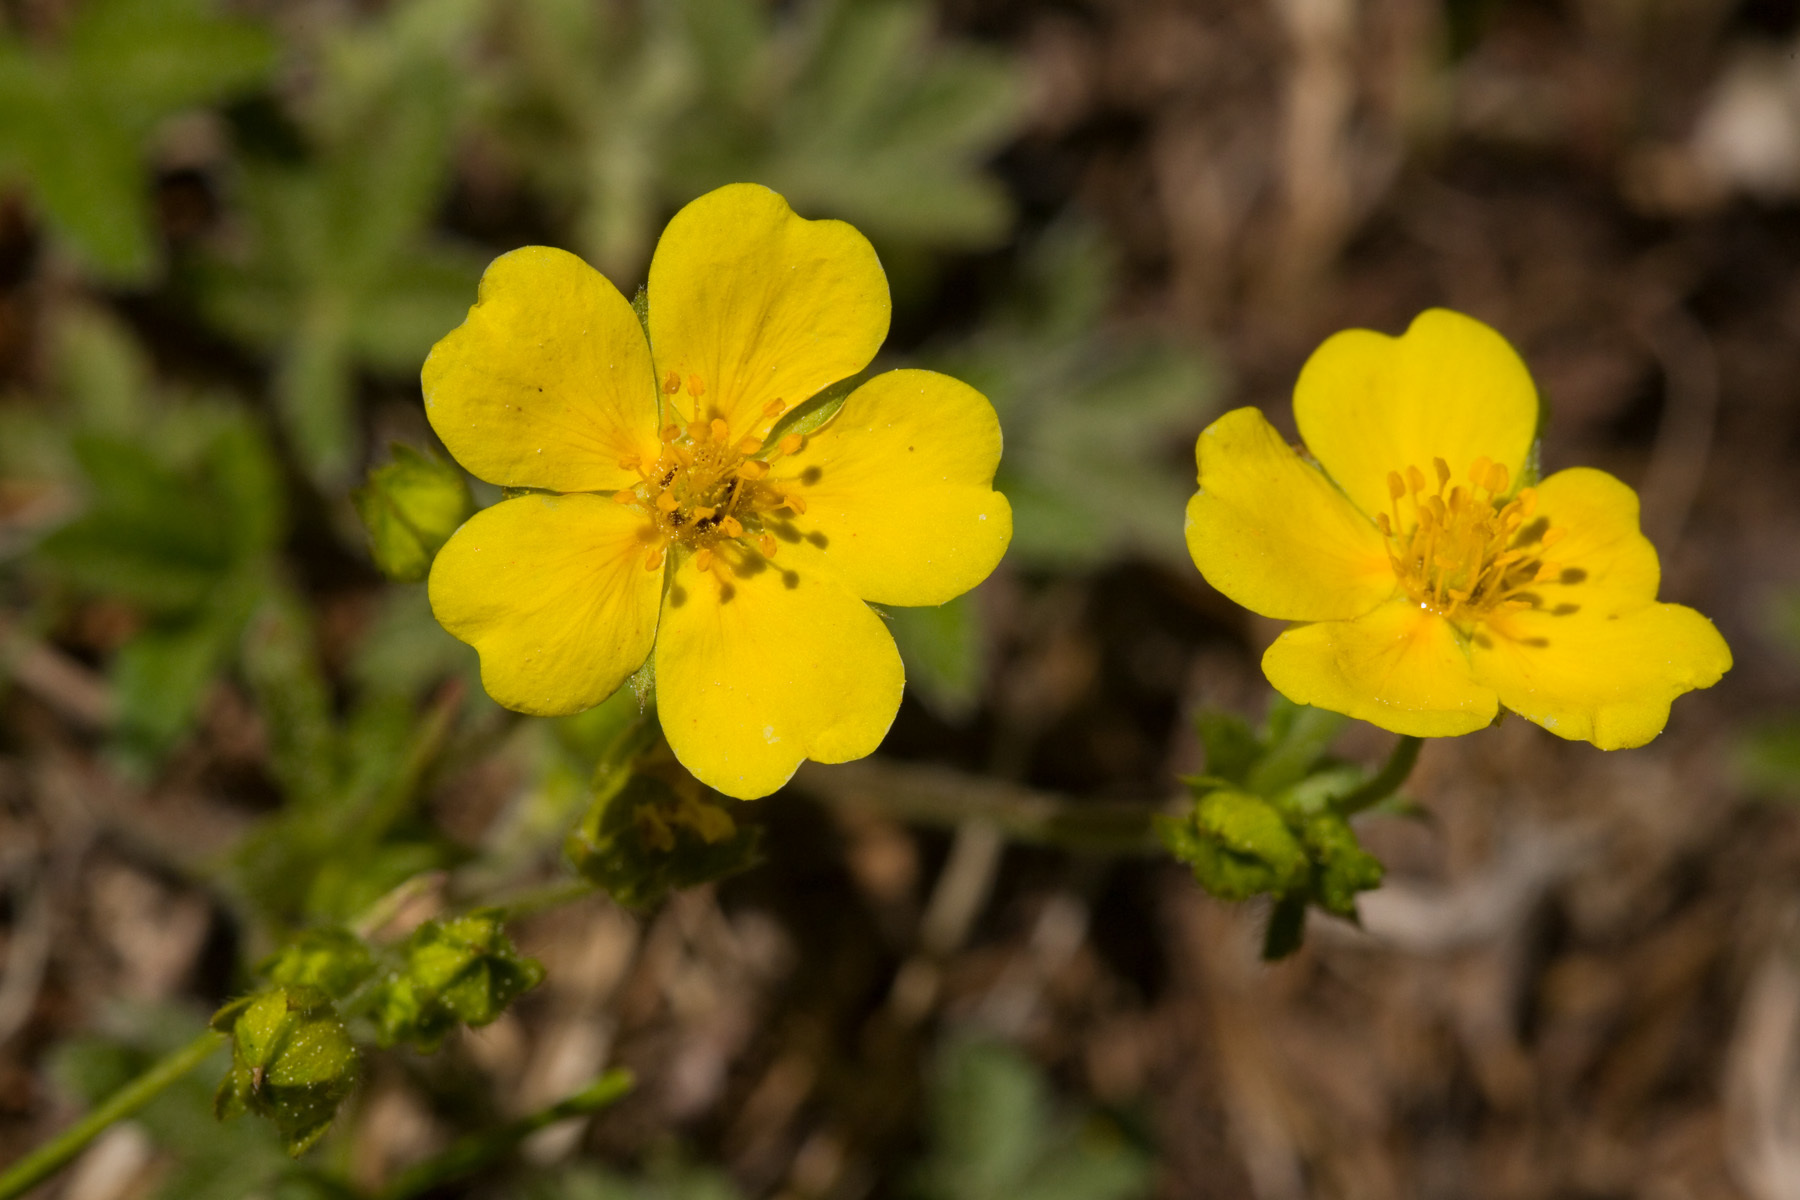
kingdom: Plantae
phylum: Tracheophyta
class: Magnoliopsida
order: Rosales
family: Rosaceae
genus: Potentilla
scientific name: Potentilla gracilis
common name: Graceful cinquefoil
